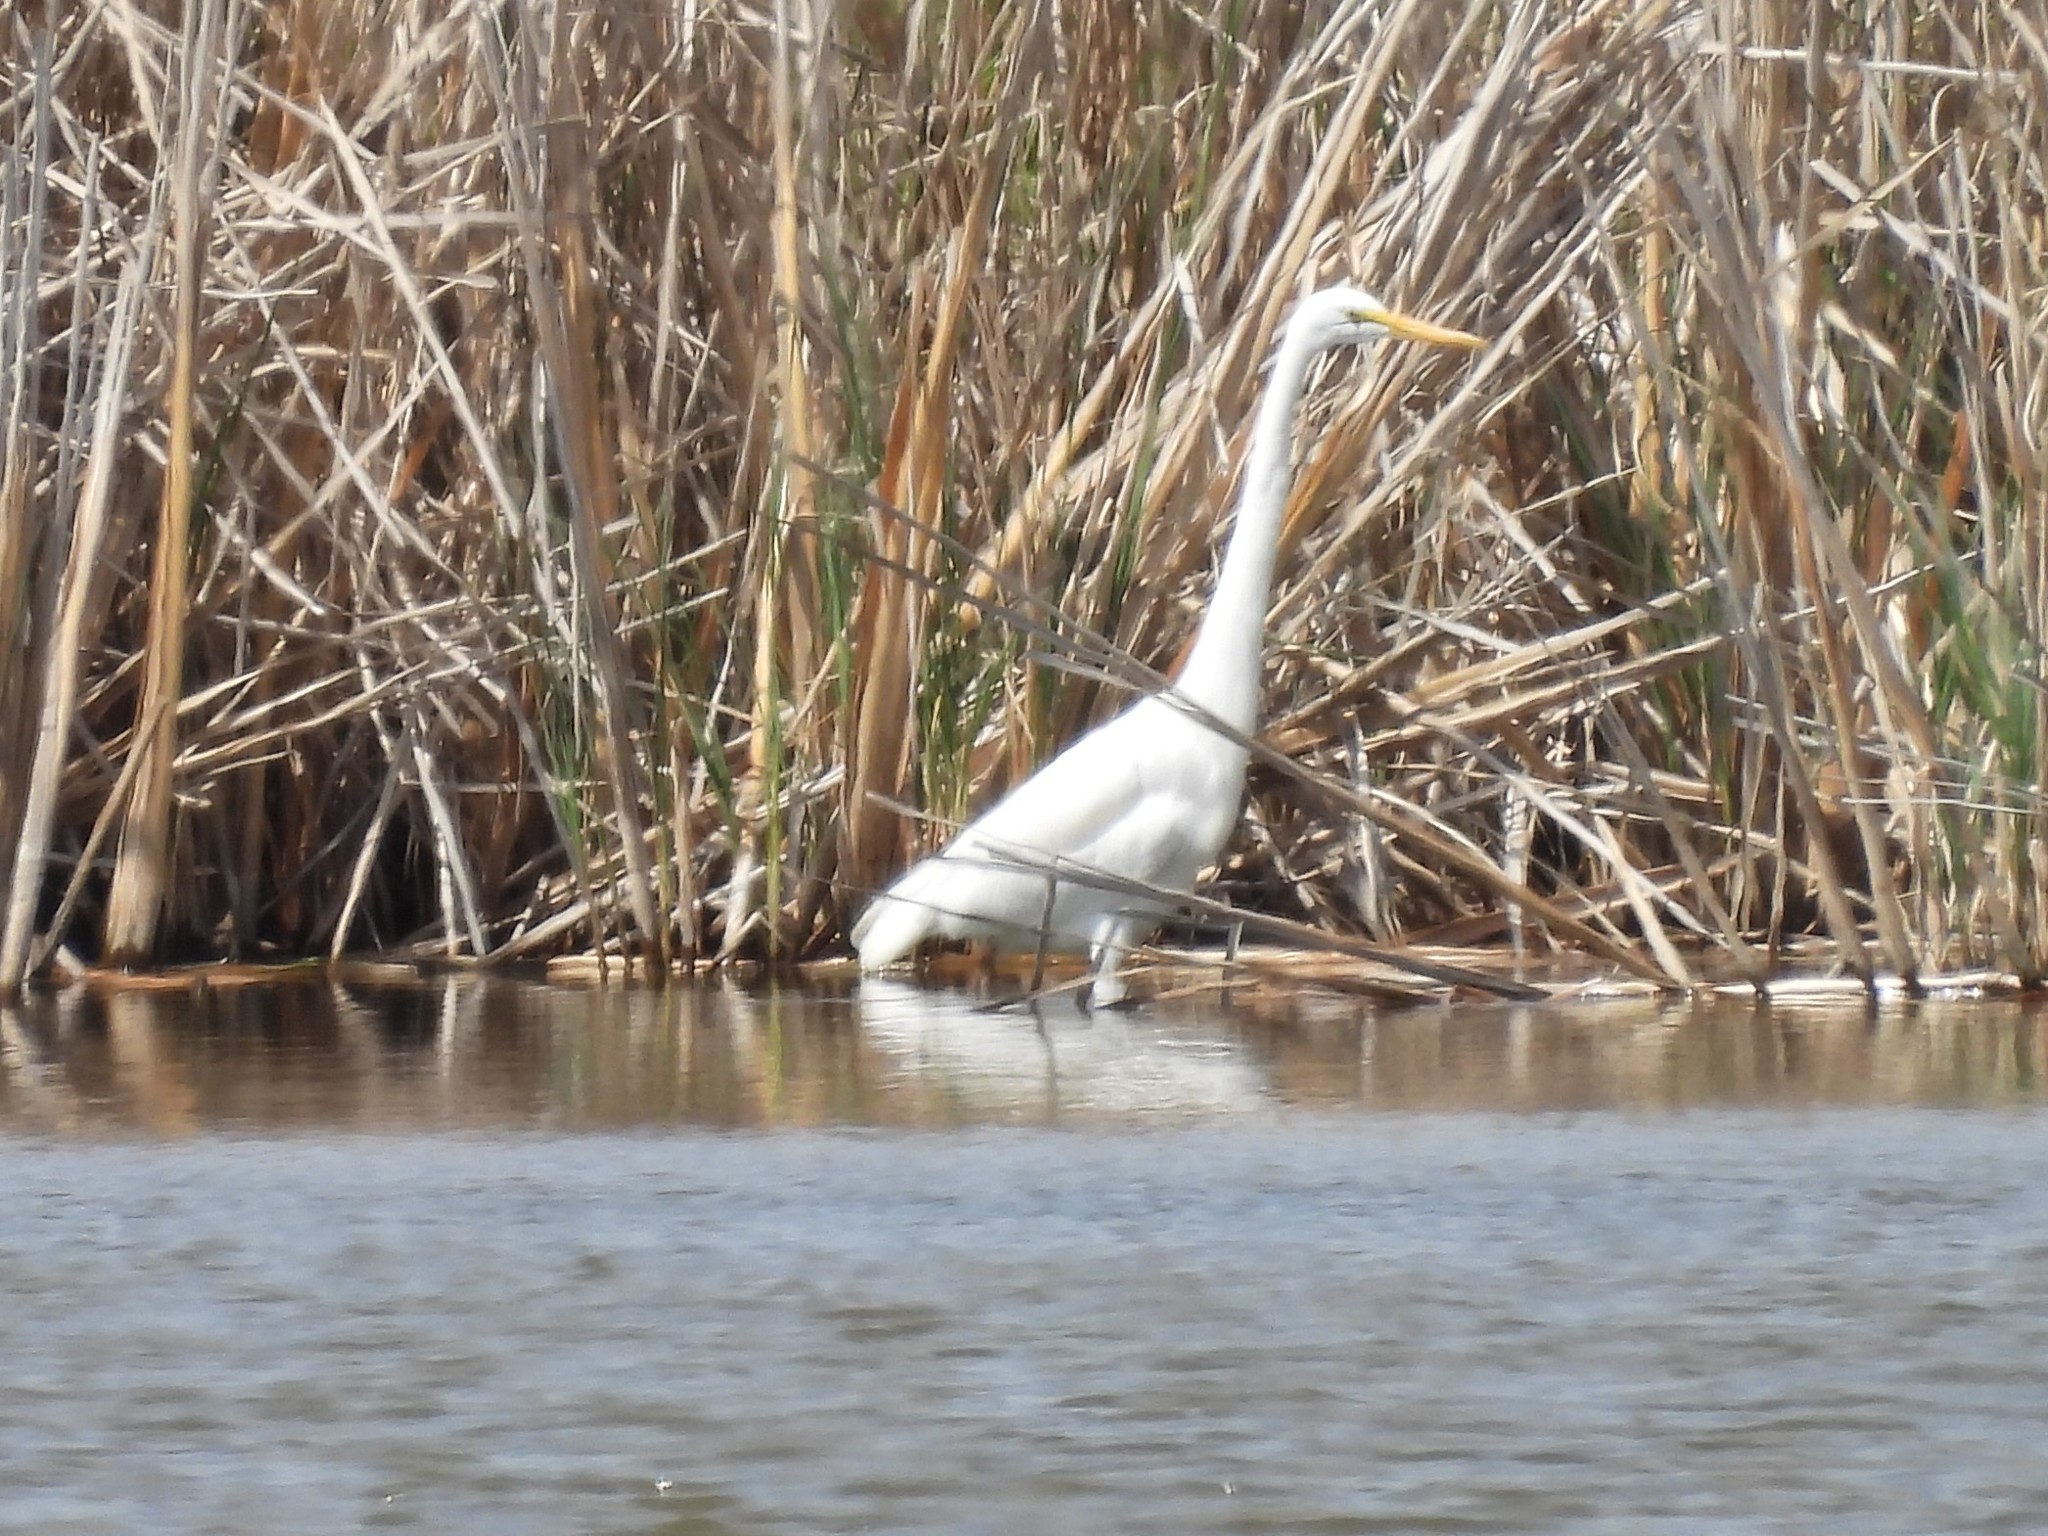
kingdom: Animalia
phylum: Chordata
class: Aves
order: Pelecaniformes
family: Ardeidae
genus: Ardea
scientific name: Ardea alba
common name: Great egret
